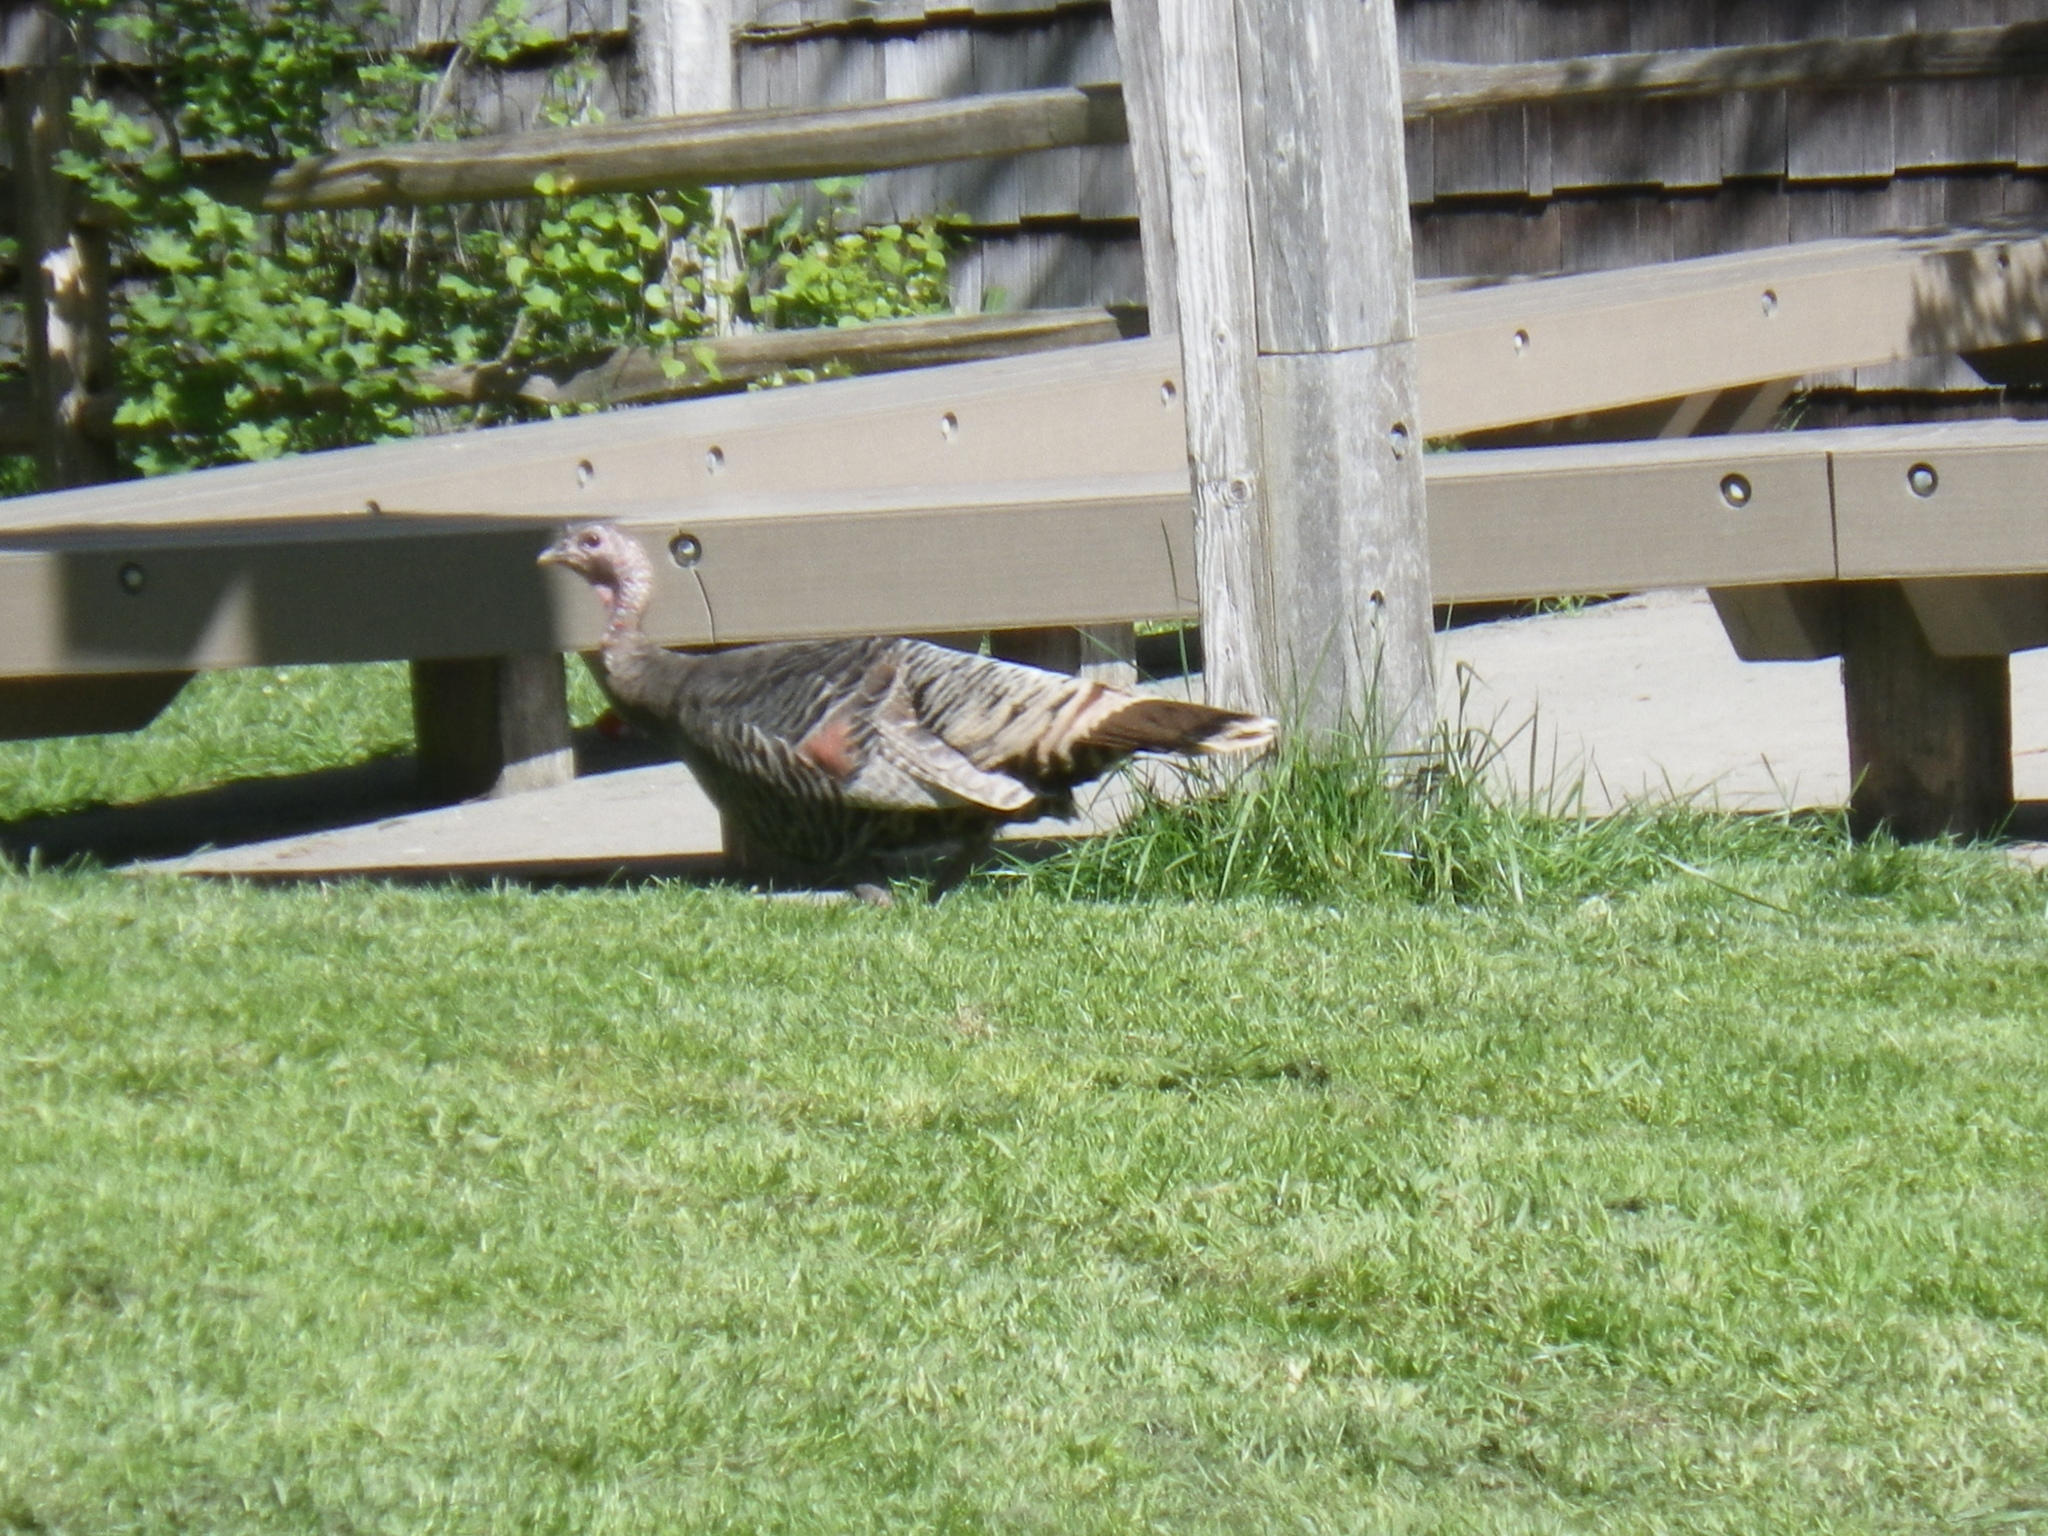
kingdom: Animalia
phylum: Chordata
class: Aves
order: Galliformes
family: Phasianidae
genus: Meleagris
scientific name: Meleagris gallopavo
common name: Wild turkey
